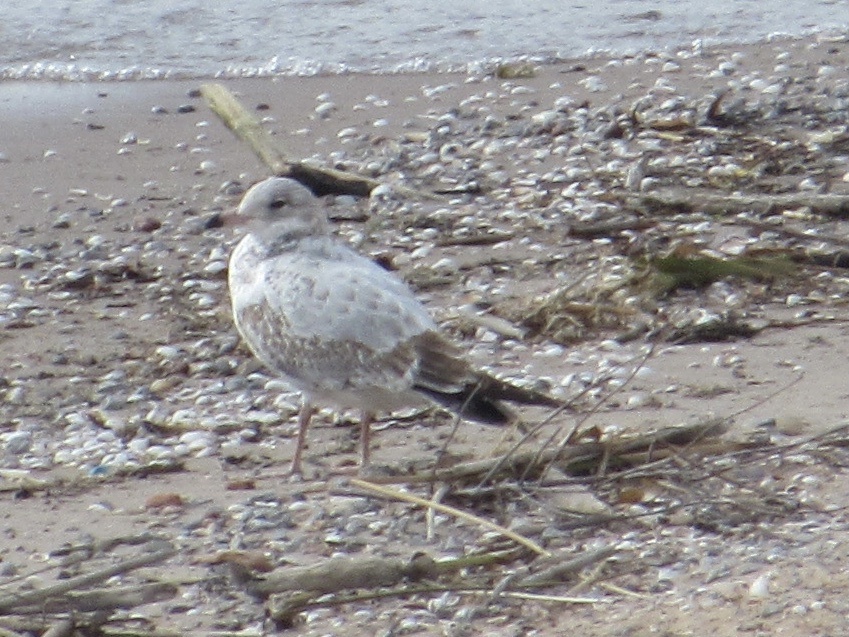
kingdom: Animalia
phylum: Chordata
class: Aves
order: Charadriiformes
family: Laridae
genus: Larus
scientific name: Larus delawarensis
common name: Ring-billed gull
